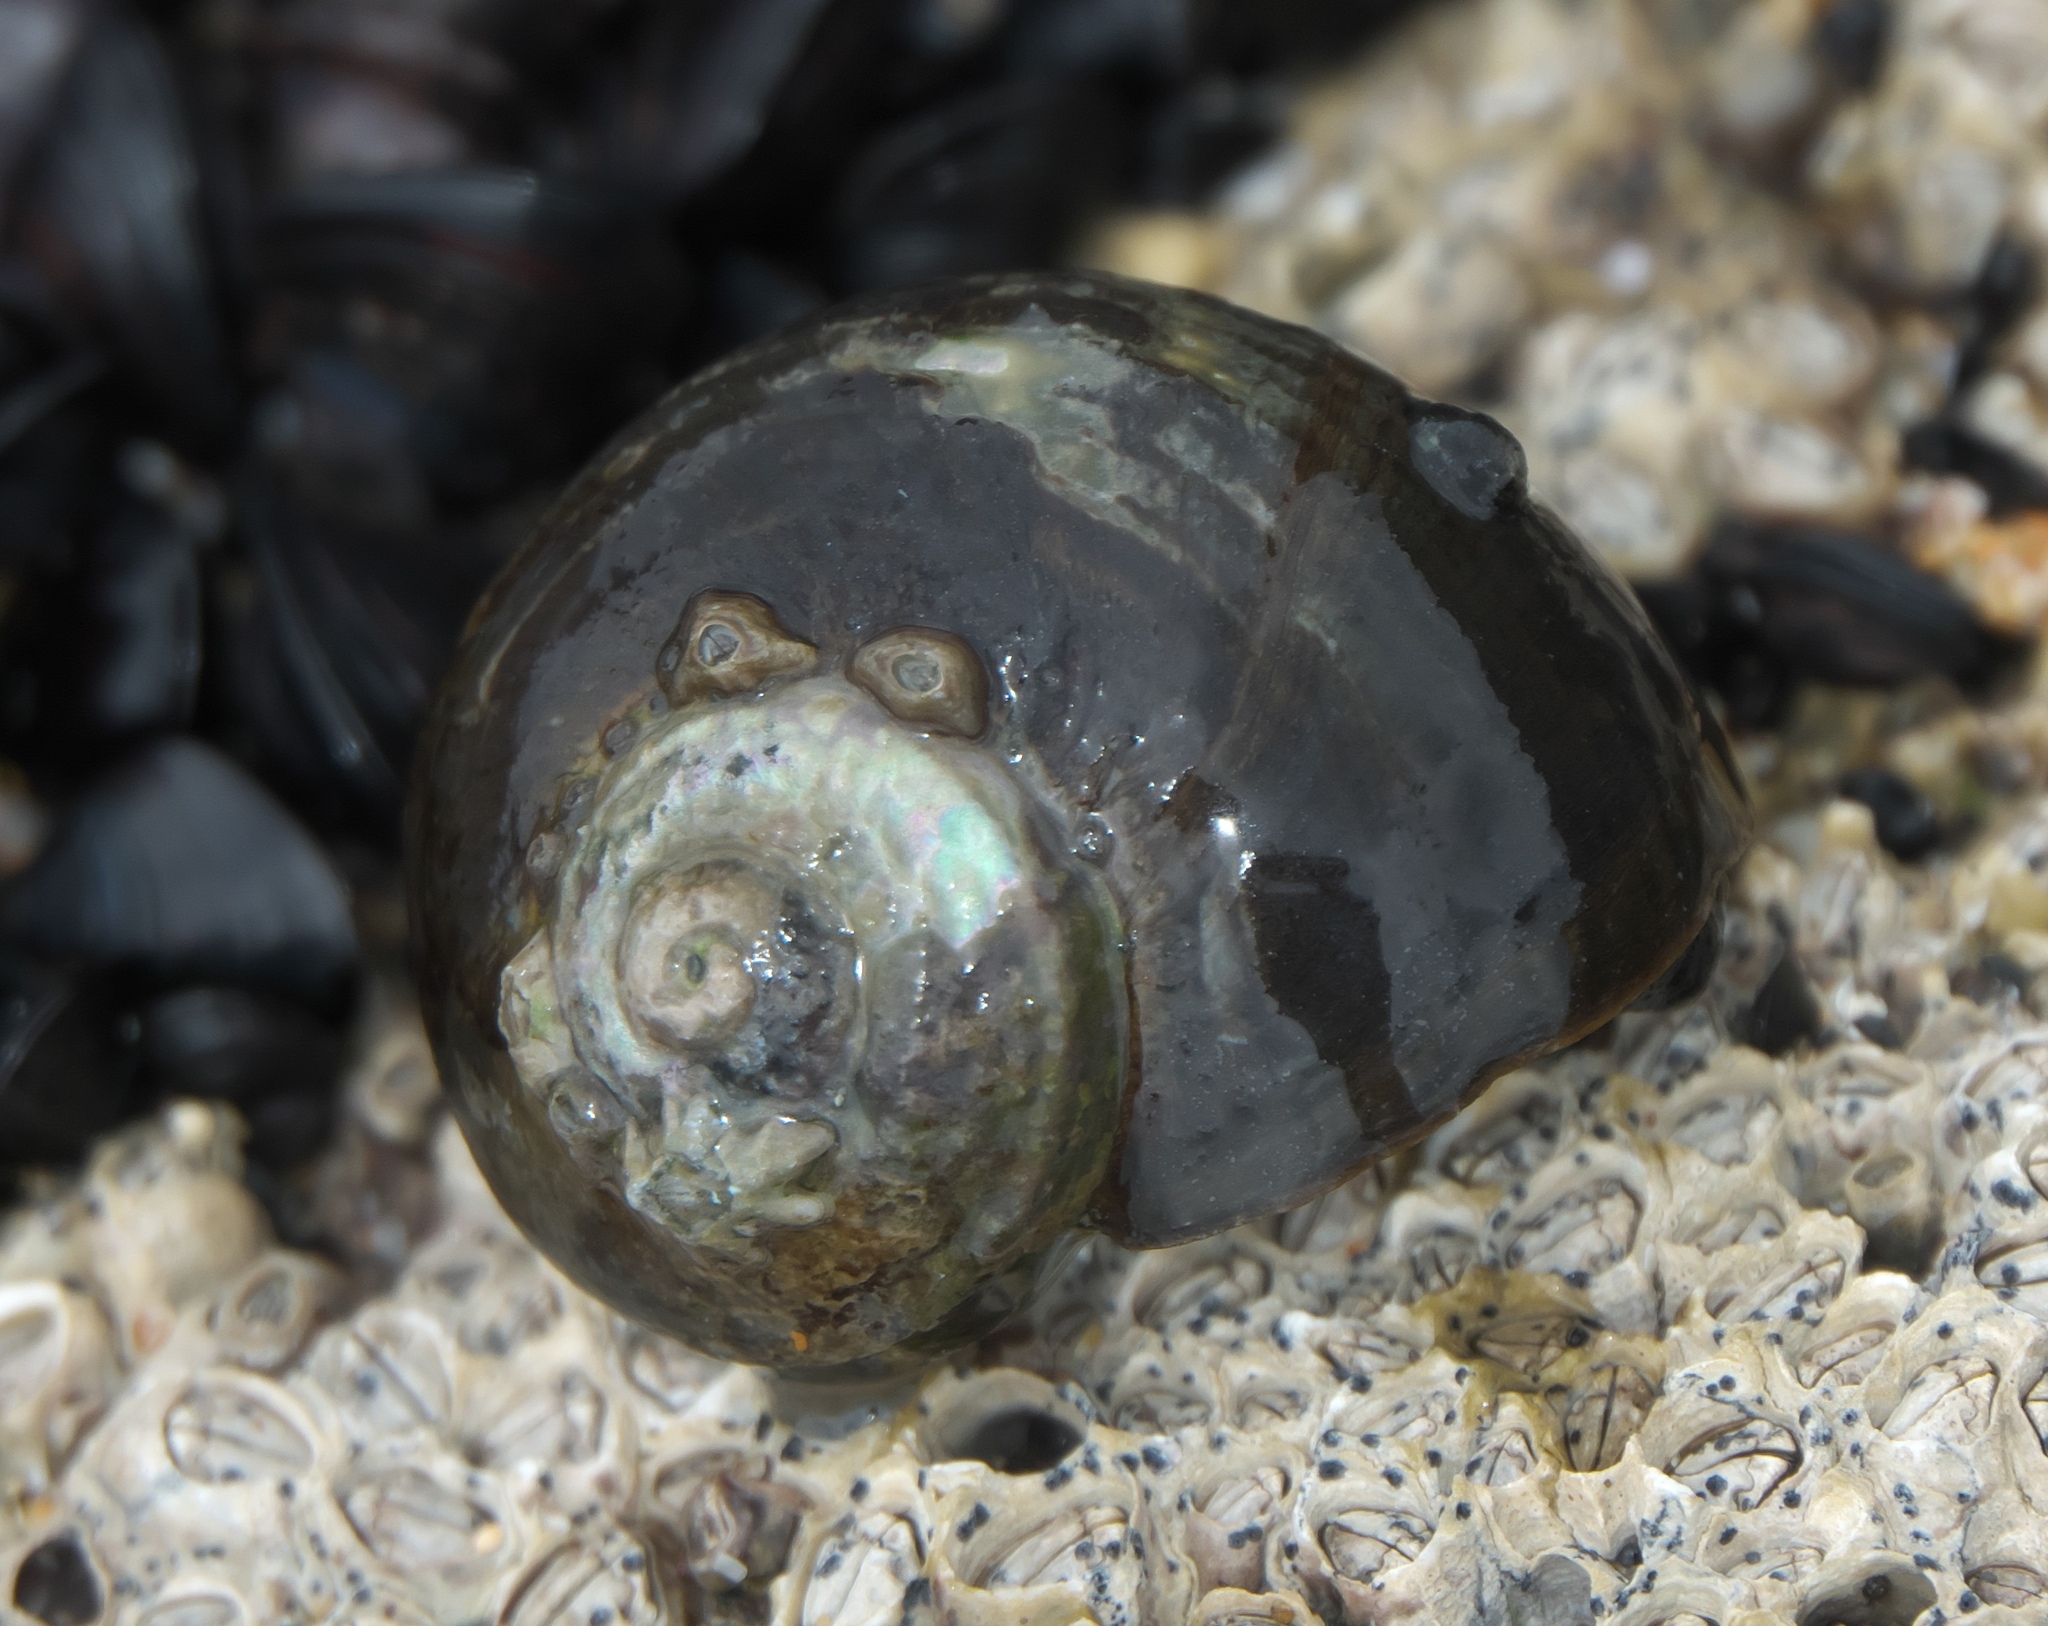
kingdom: Animalia
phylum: Mollusca
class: Gastropoda
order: Trochida
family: Turbinidae
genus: Lunella
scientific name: Lunella smaragda
